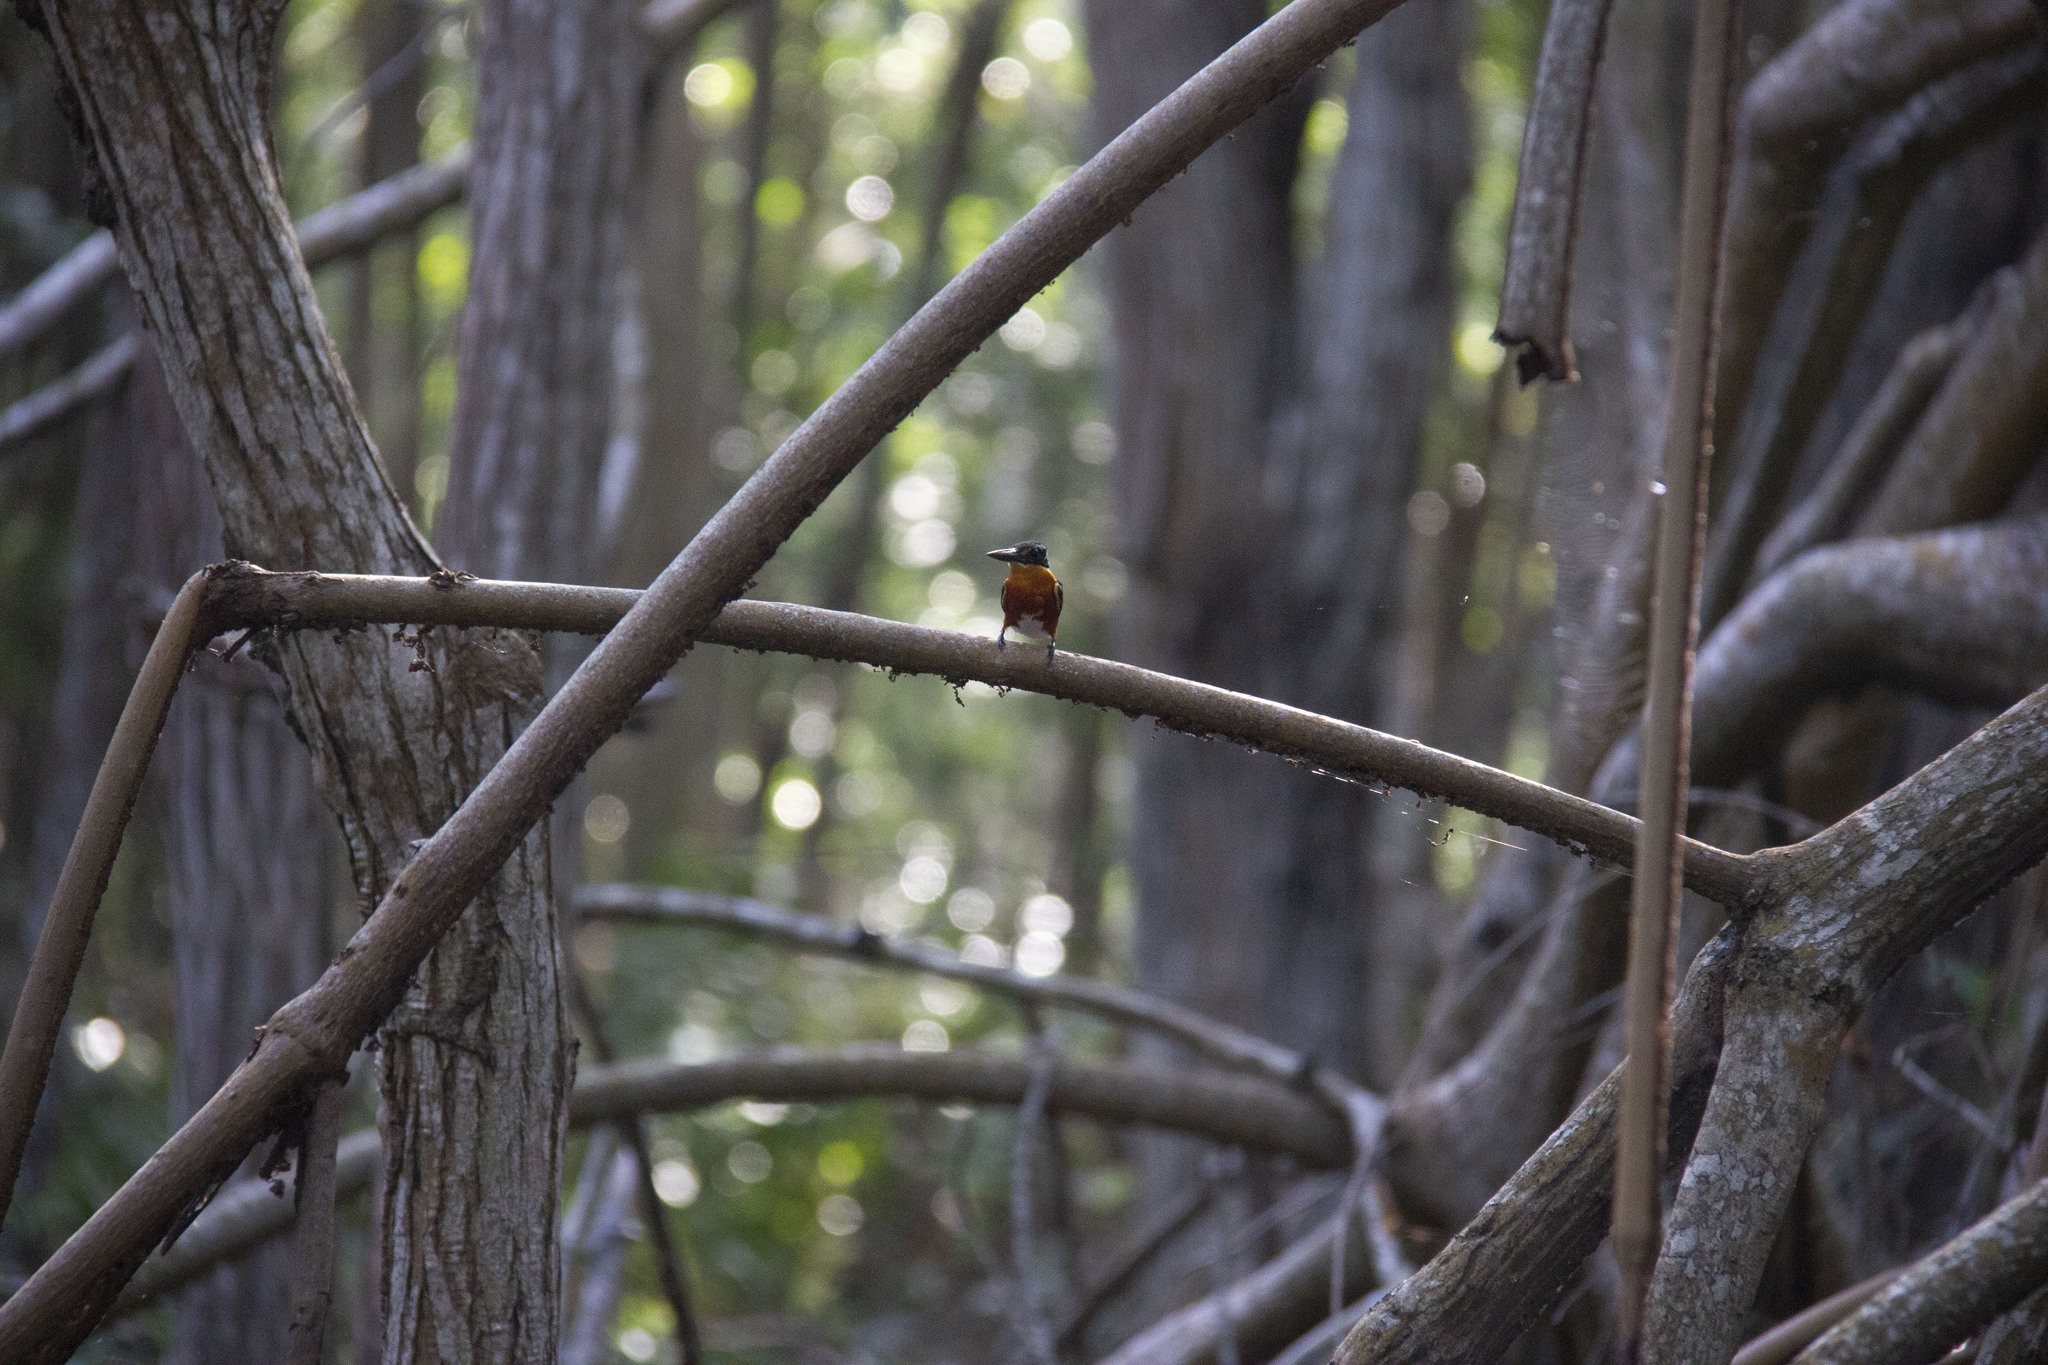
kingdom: Animalia
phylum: Chordata
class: Aves
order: Coraciiformes
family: Alcedinidae
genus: Chloroceryle
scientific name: Chloroceryle aenea
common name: American pygmy kingfisher
